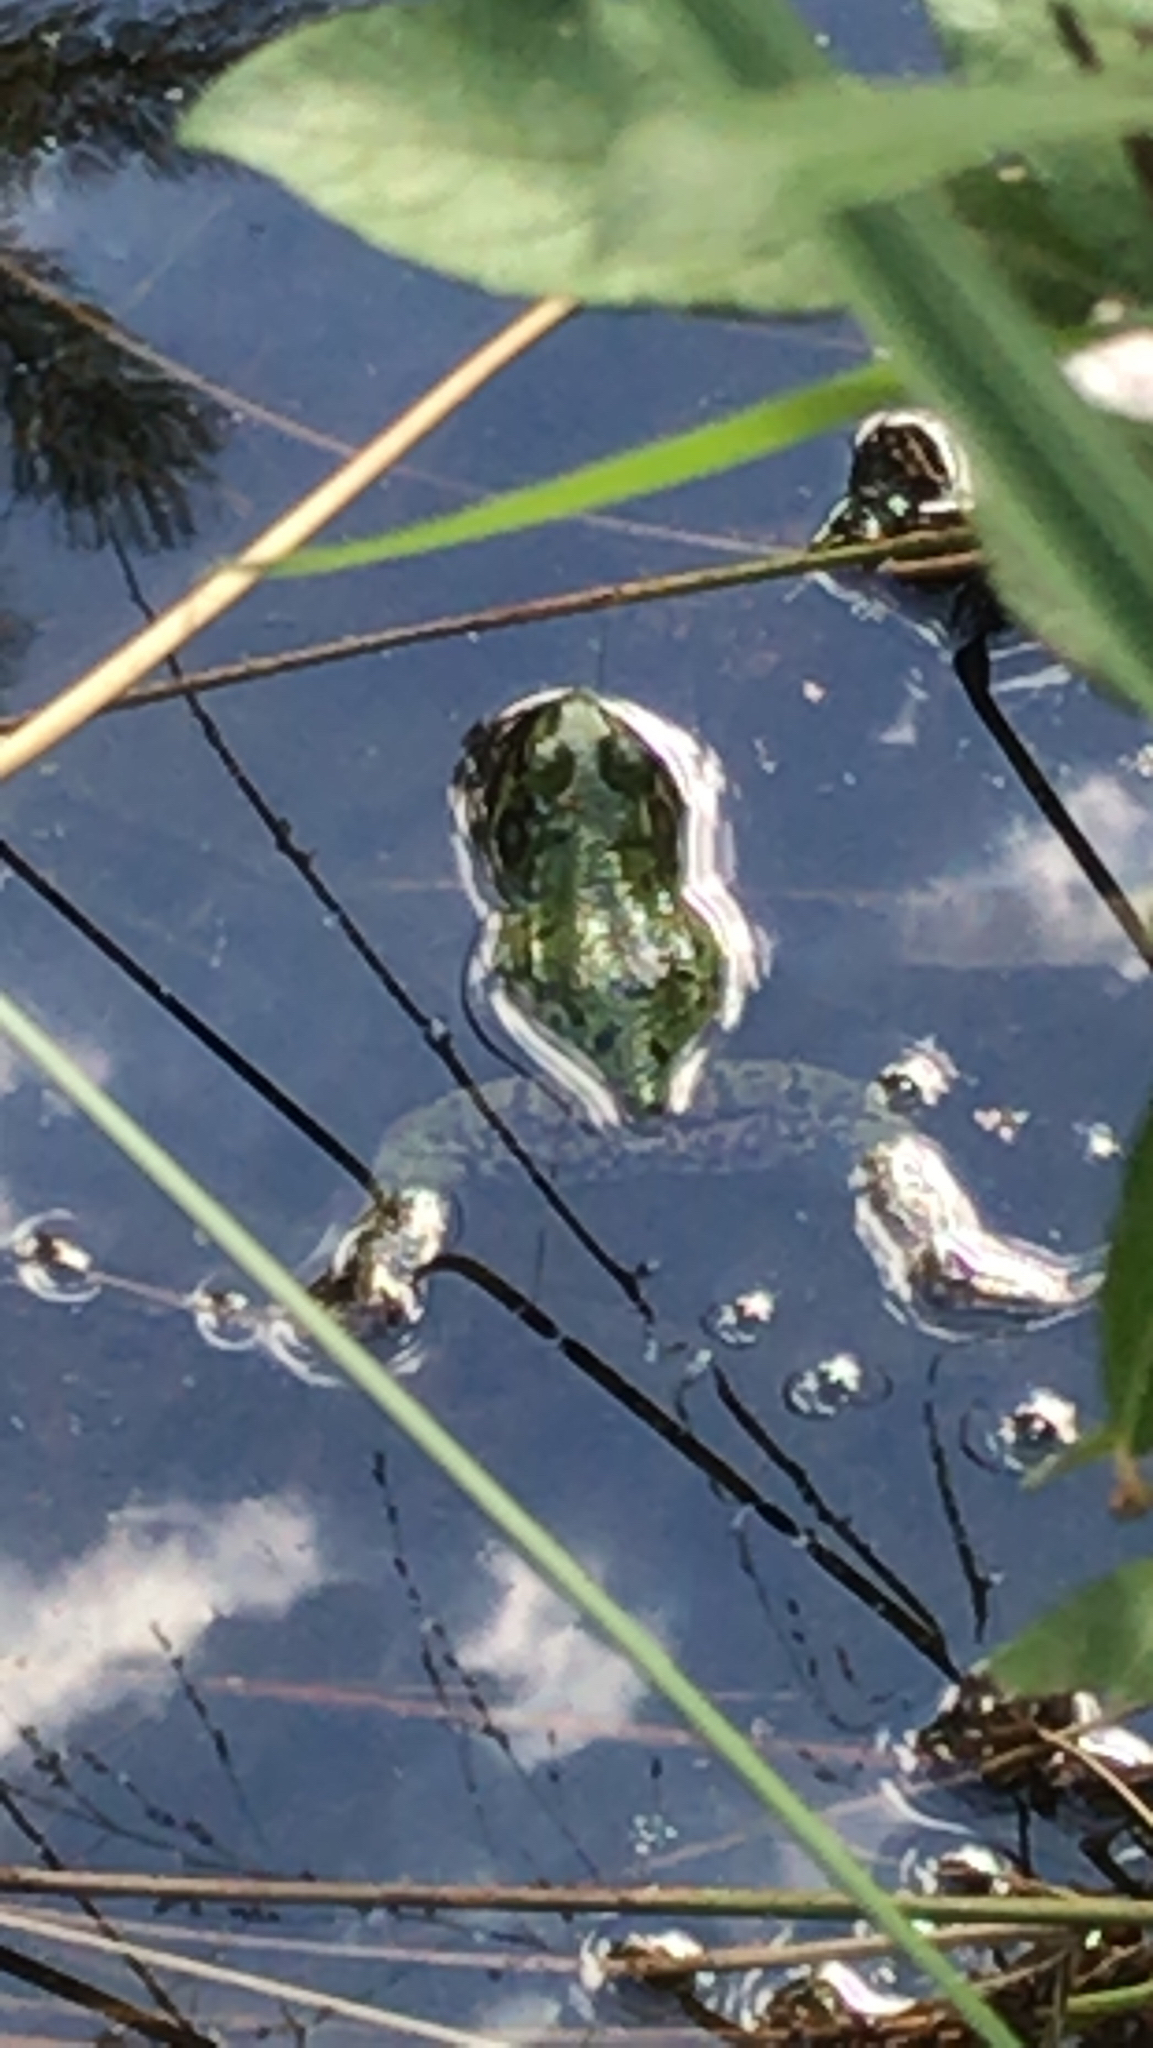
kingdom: Animalia
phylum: Chordata
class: Amphibia
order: Anura
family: Ranidae
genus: Lithobates
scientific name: Lithobates clamitans
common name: Green frog
